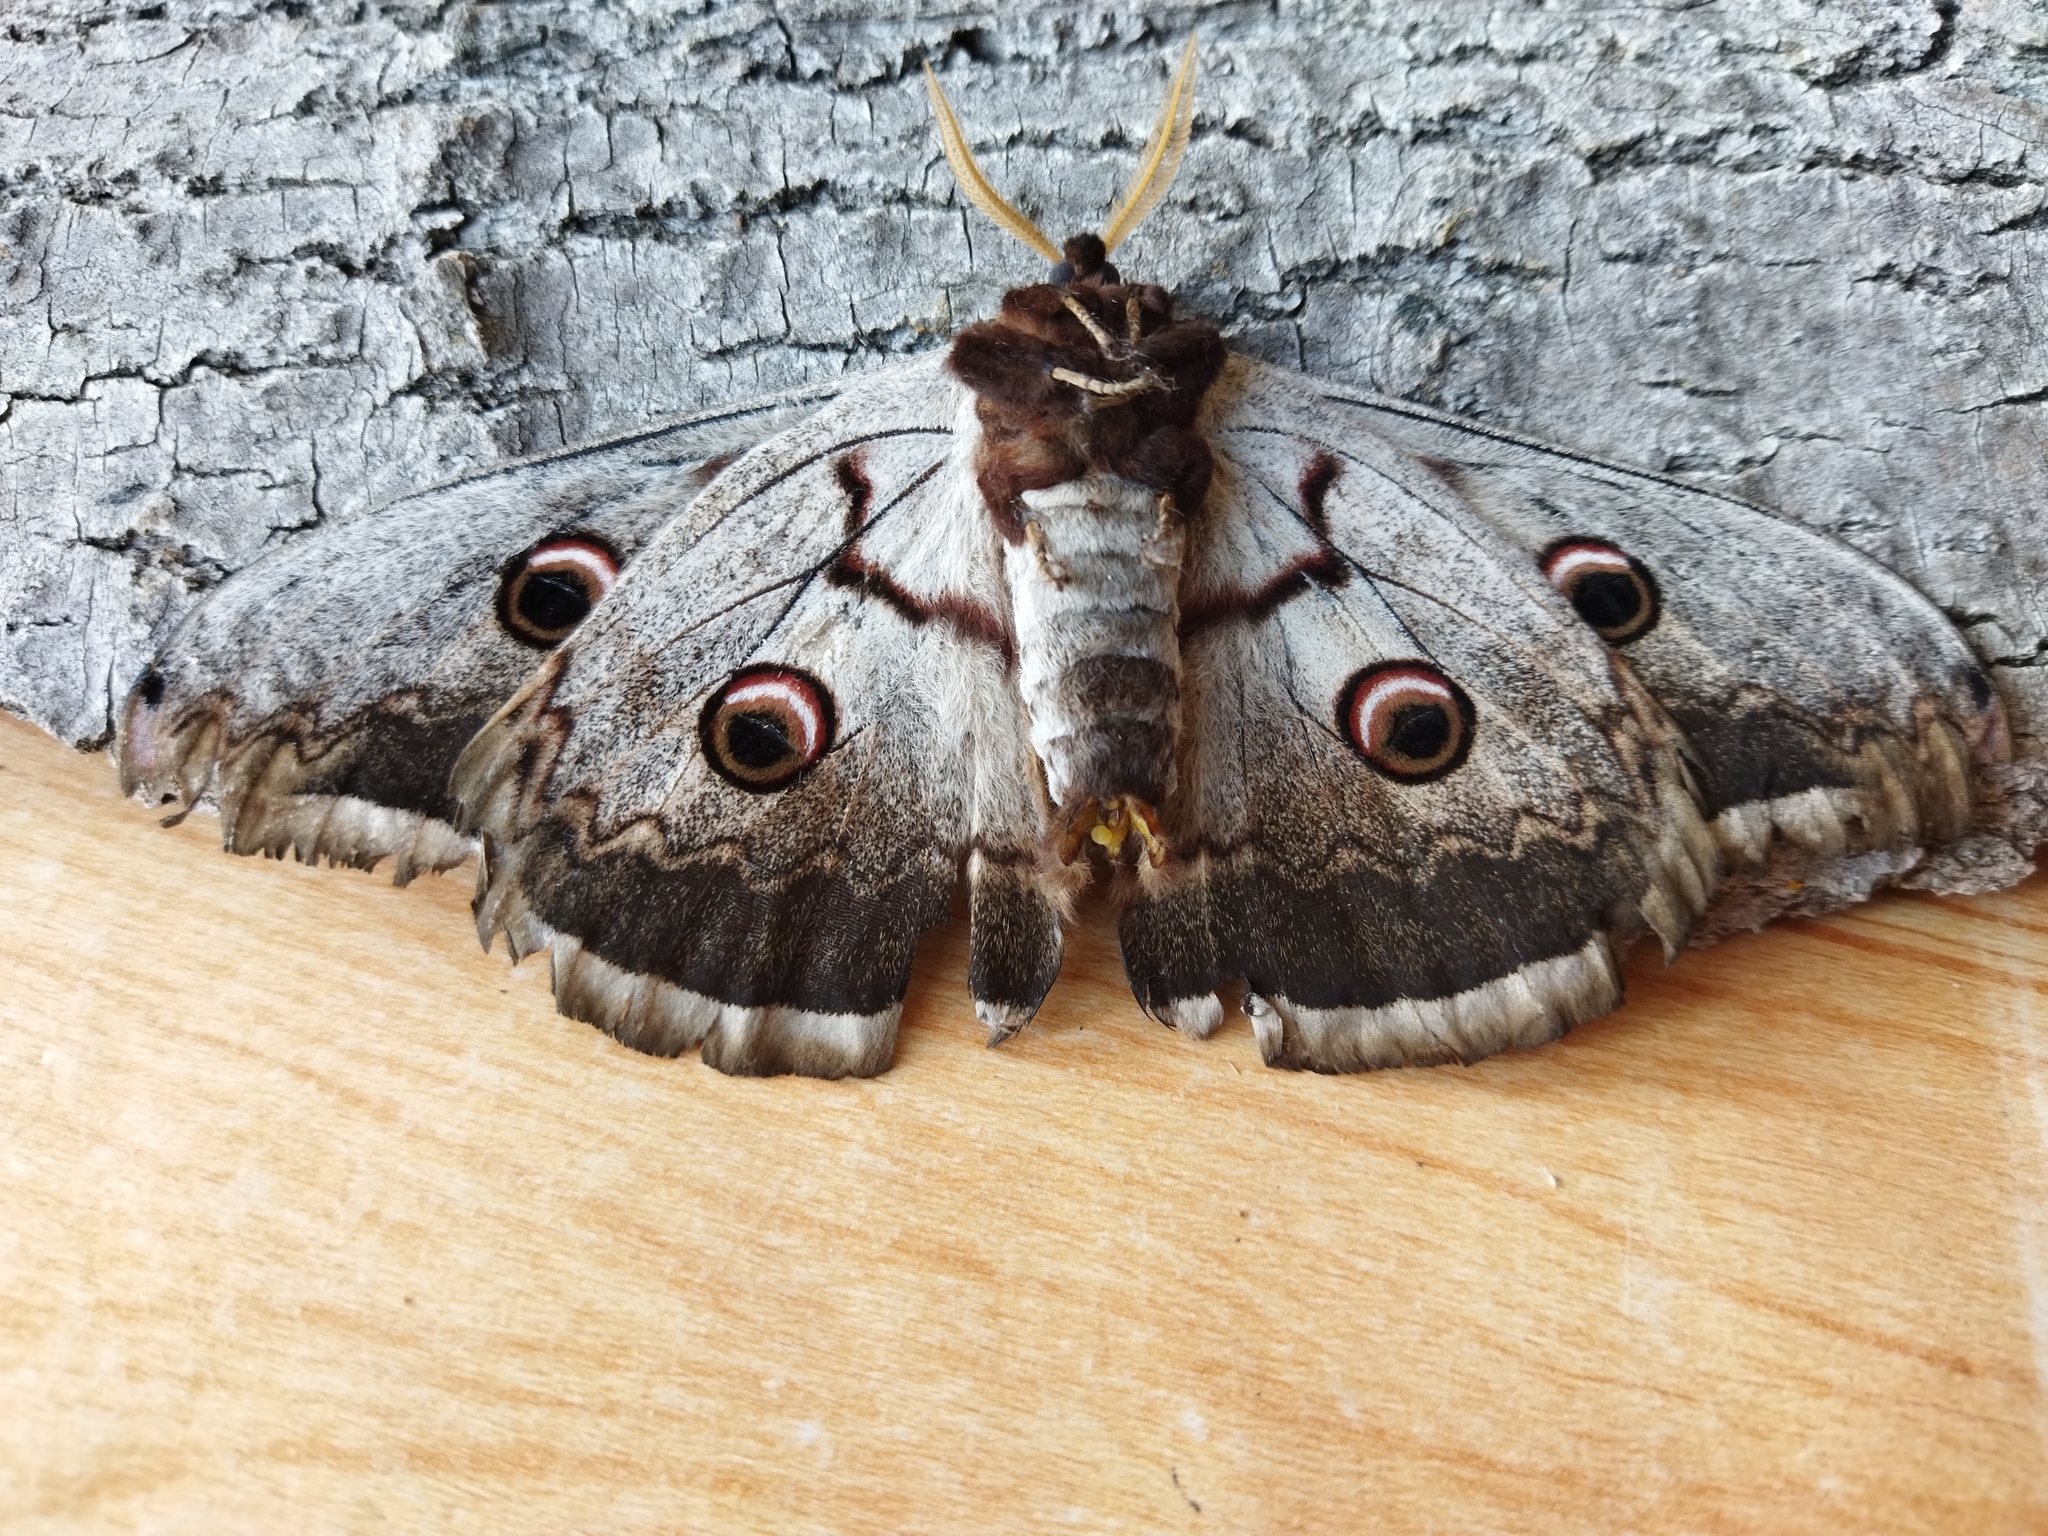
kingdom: Animalia
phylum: Arthropoda
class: Insecta
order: Lepidoptera
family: Saturniidae
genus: Saturnia
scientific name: Saturnia pyri
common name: Great peacock moth
